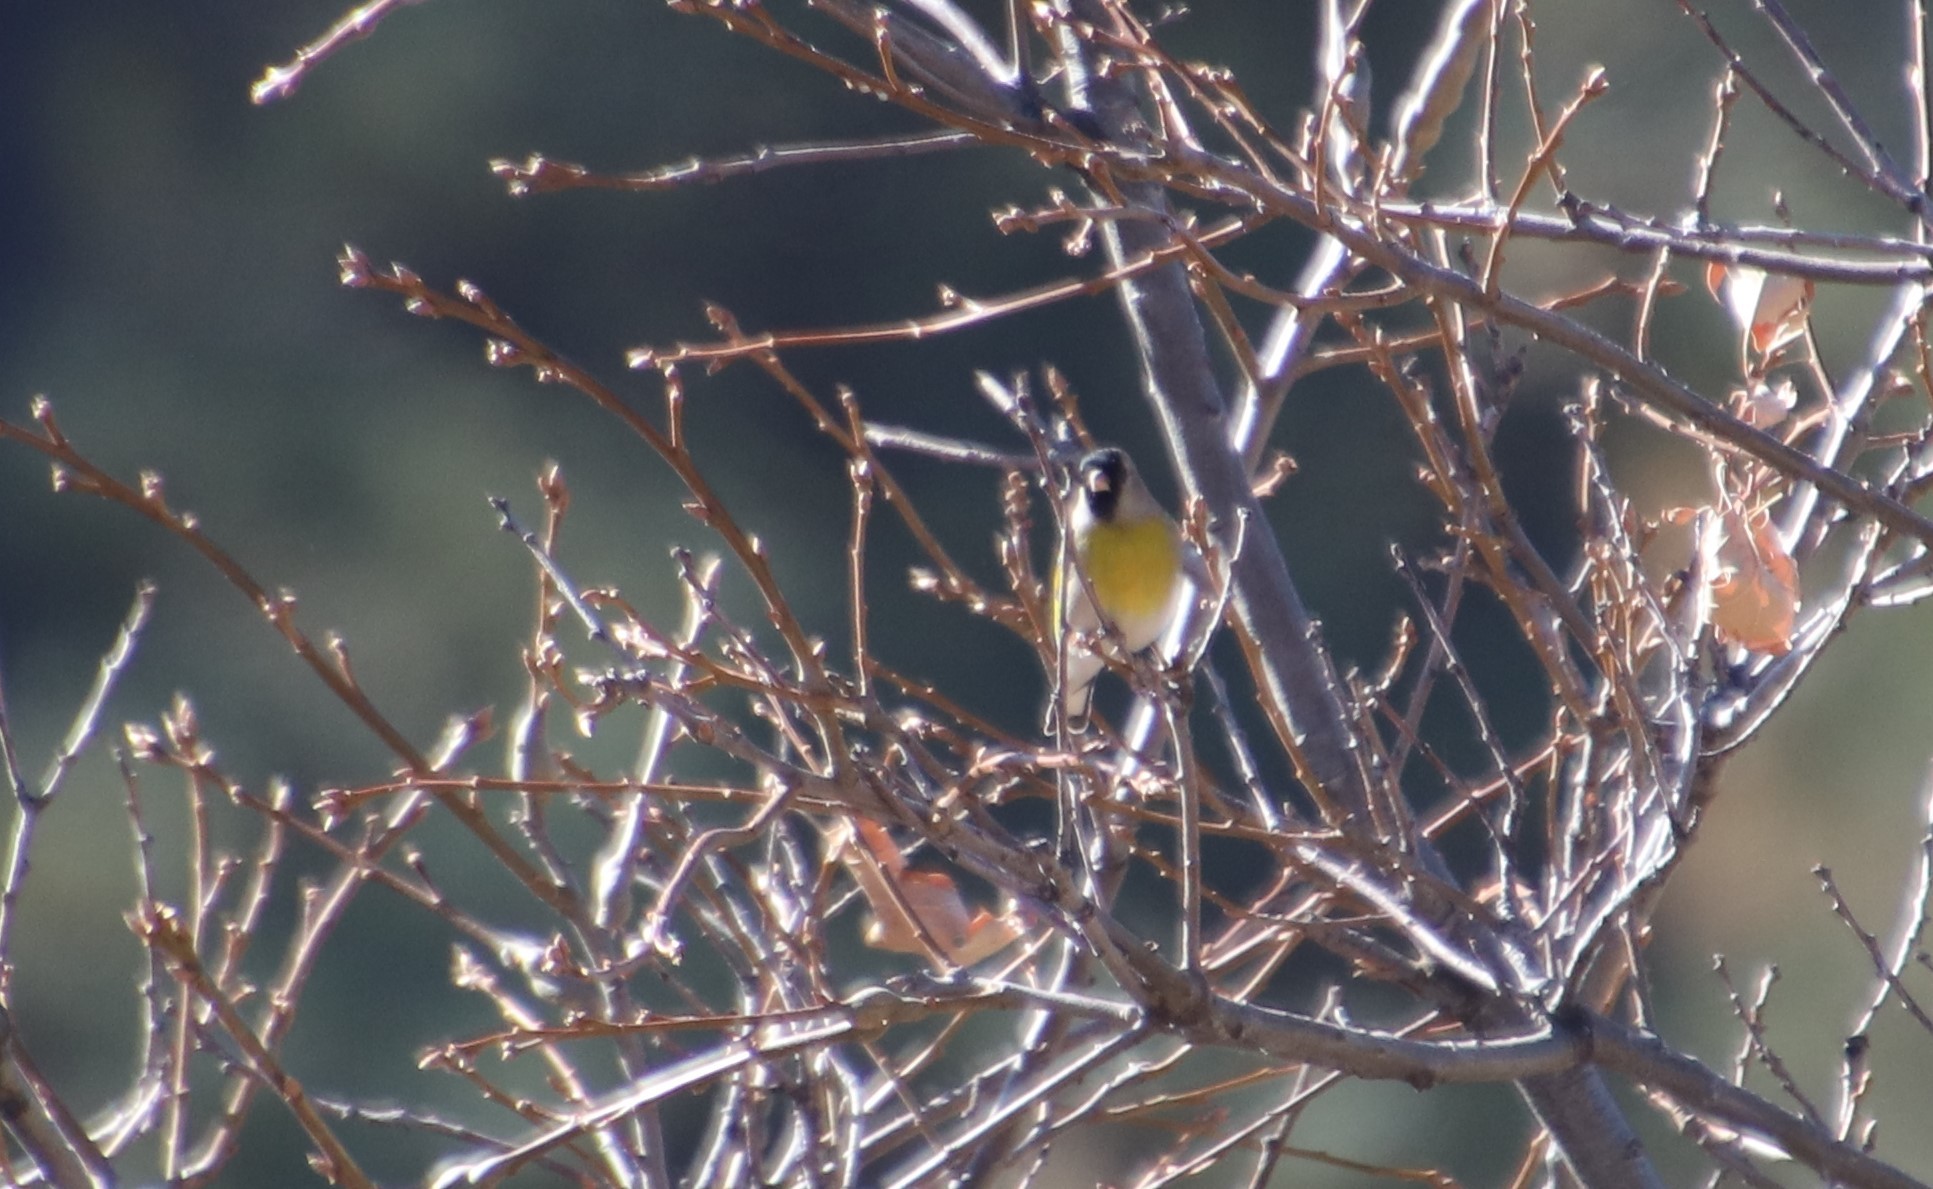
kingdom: Animalia
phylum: Chordata
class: Aves
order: Passeriformes
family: Fringillidae
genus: Spinus
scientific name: Spinus lawrencei
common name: Lawrence's goldfinch
